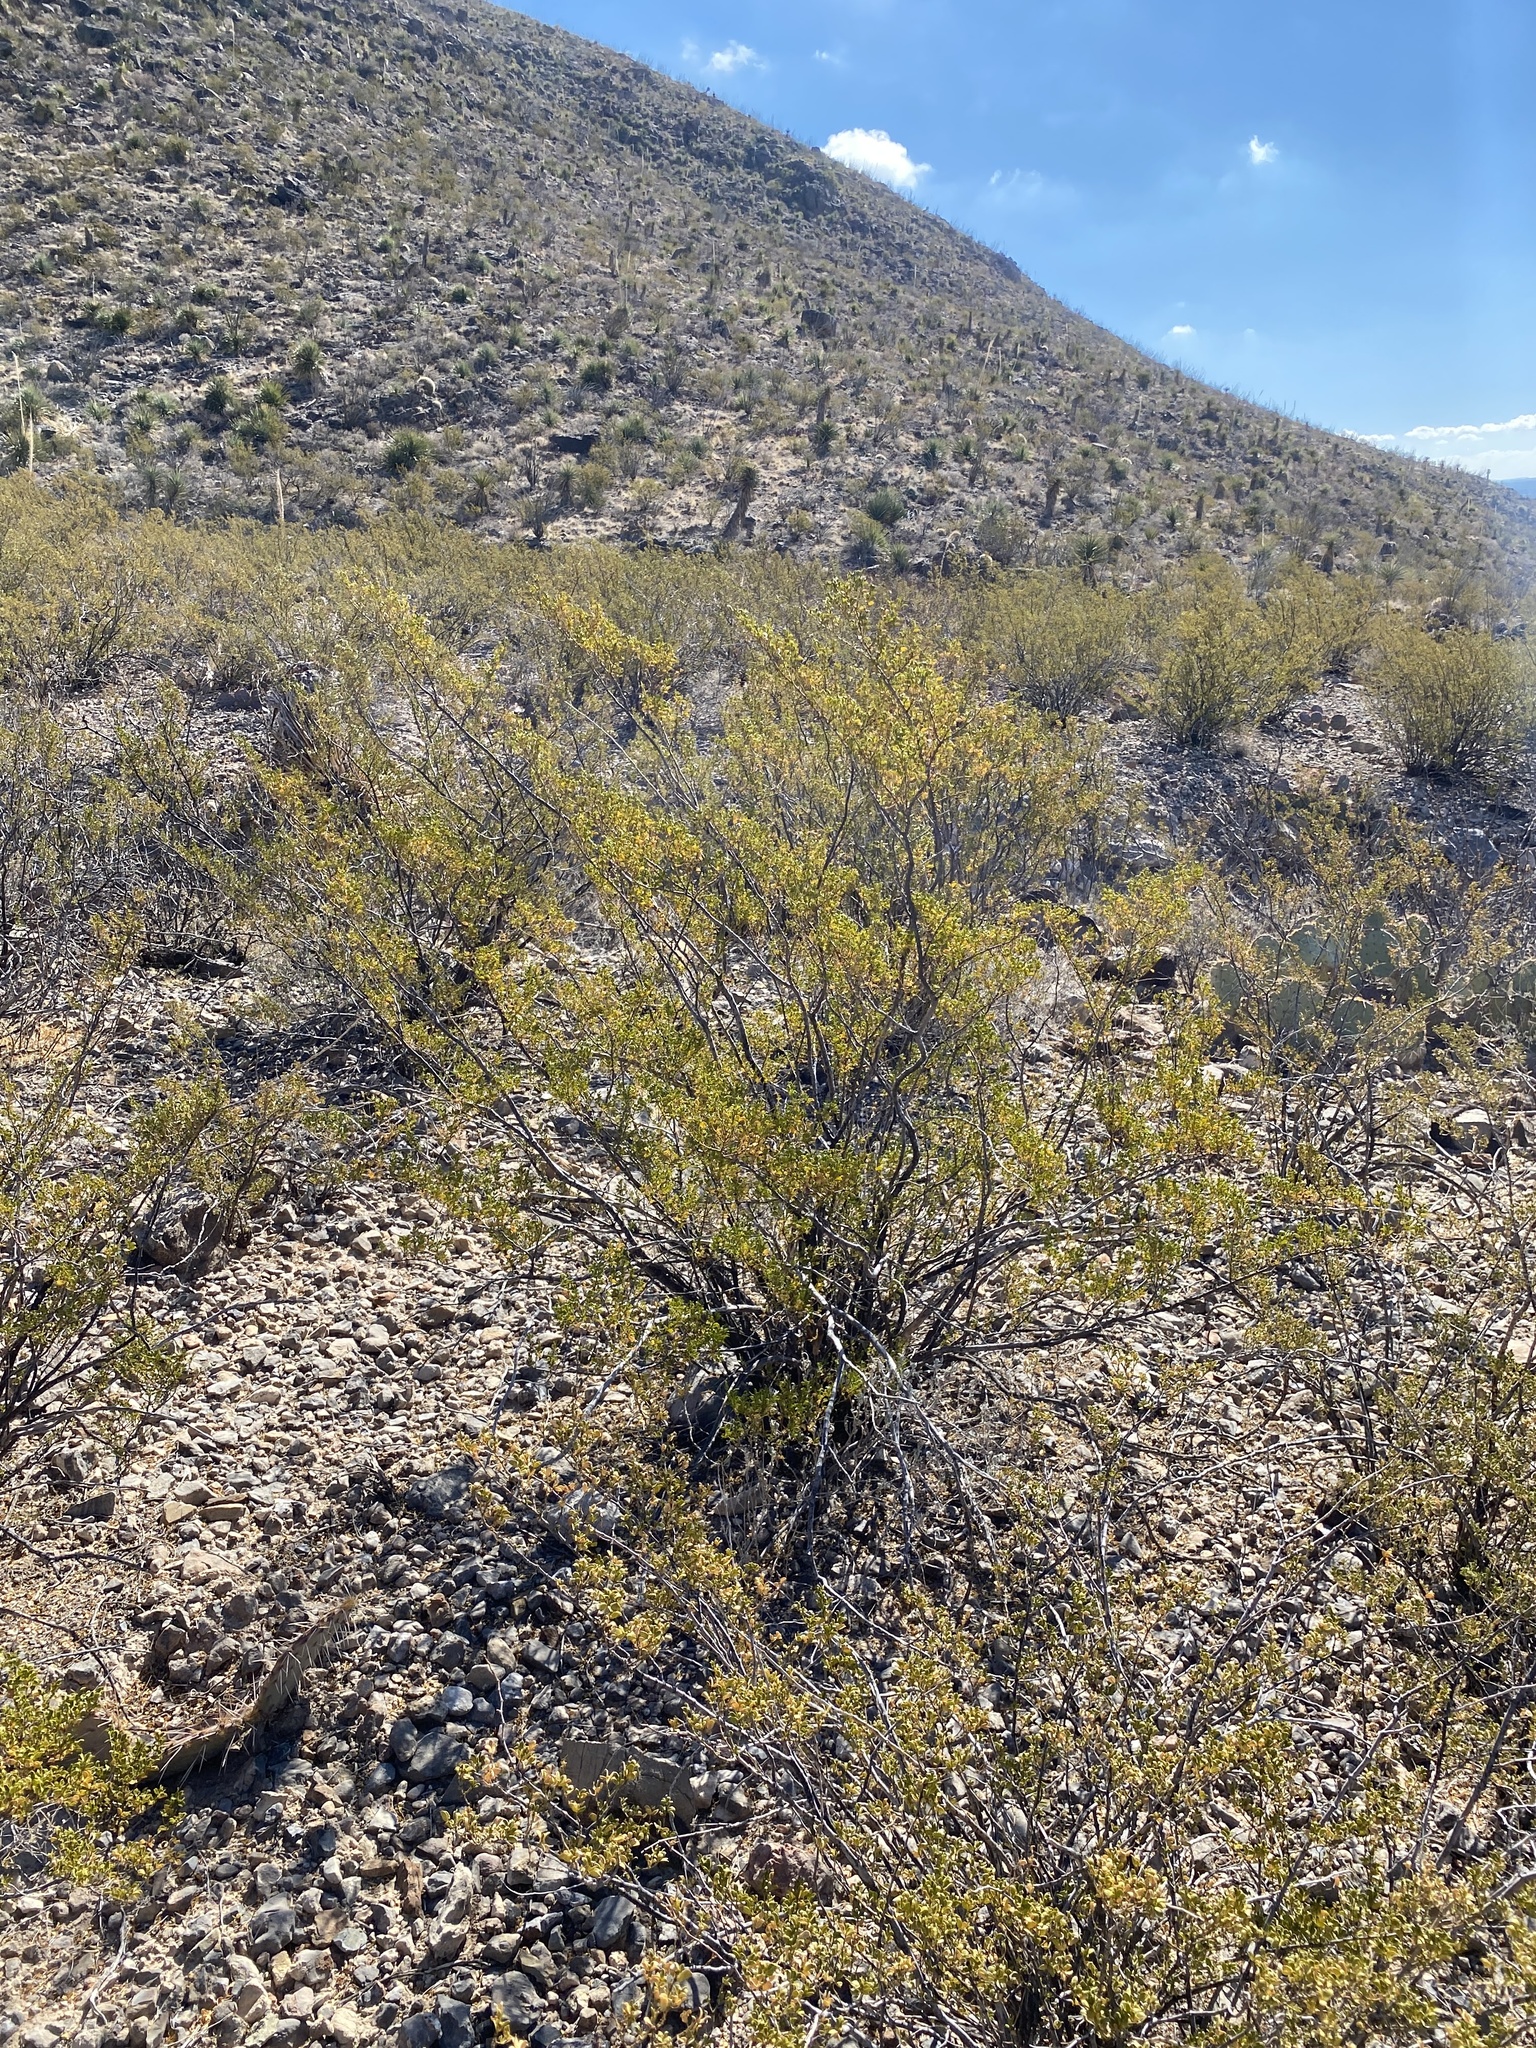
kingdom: Plantae
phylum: Tracheophyta
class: Magnoliopsida
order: Zygophyllales
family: Zygophyllaceae
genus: Larrea
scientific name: Larrea tridentata
